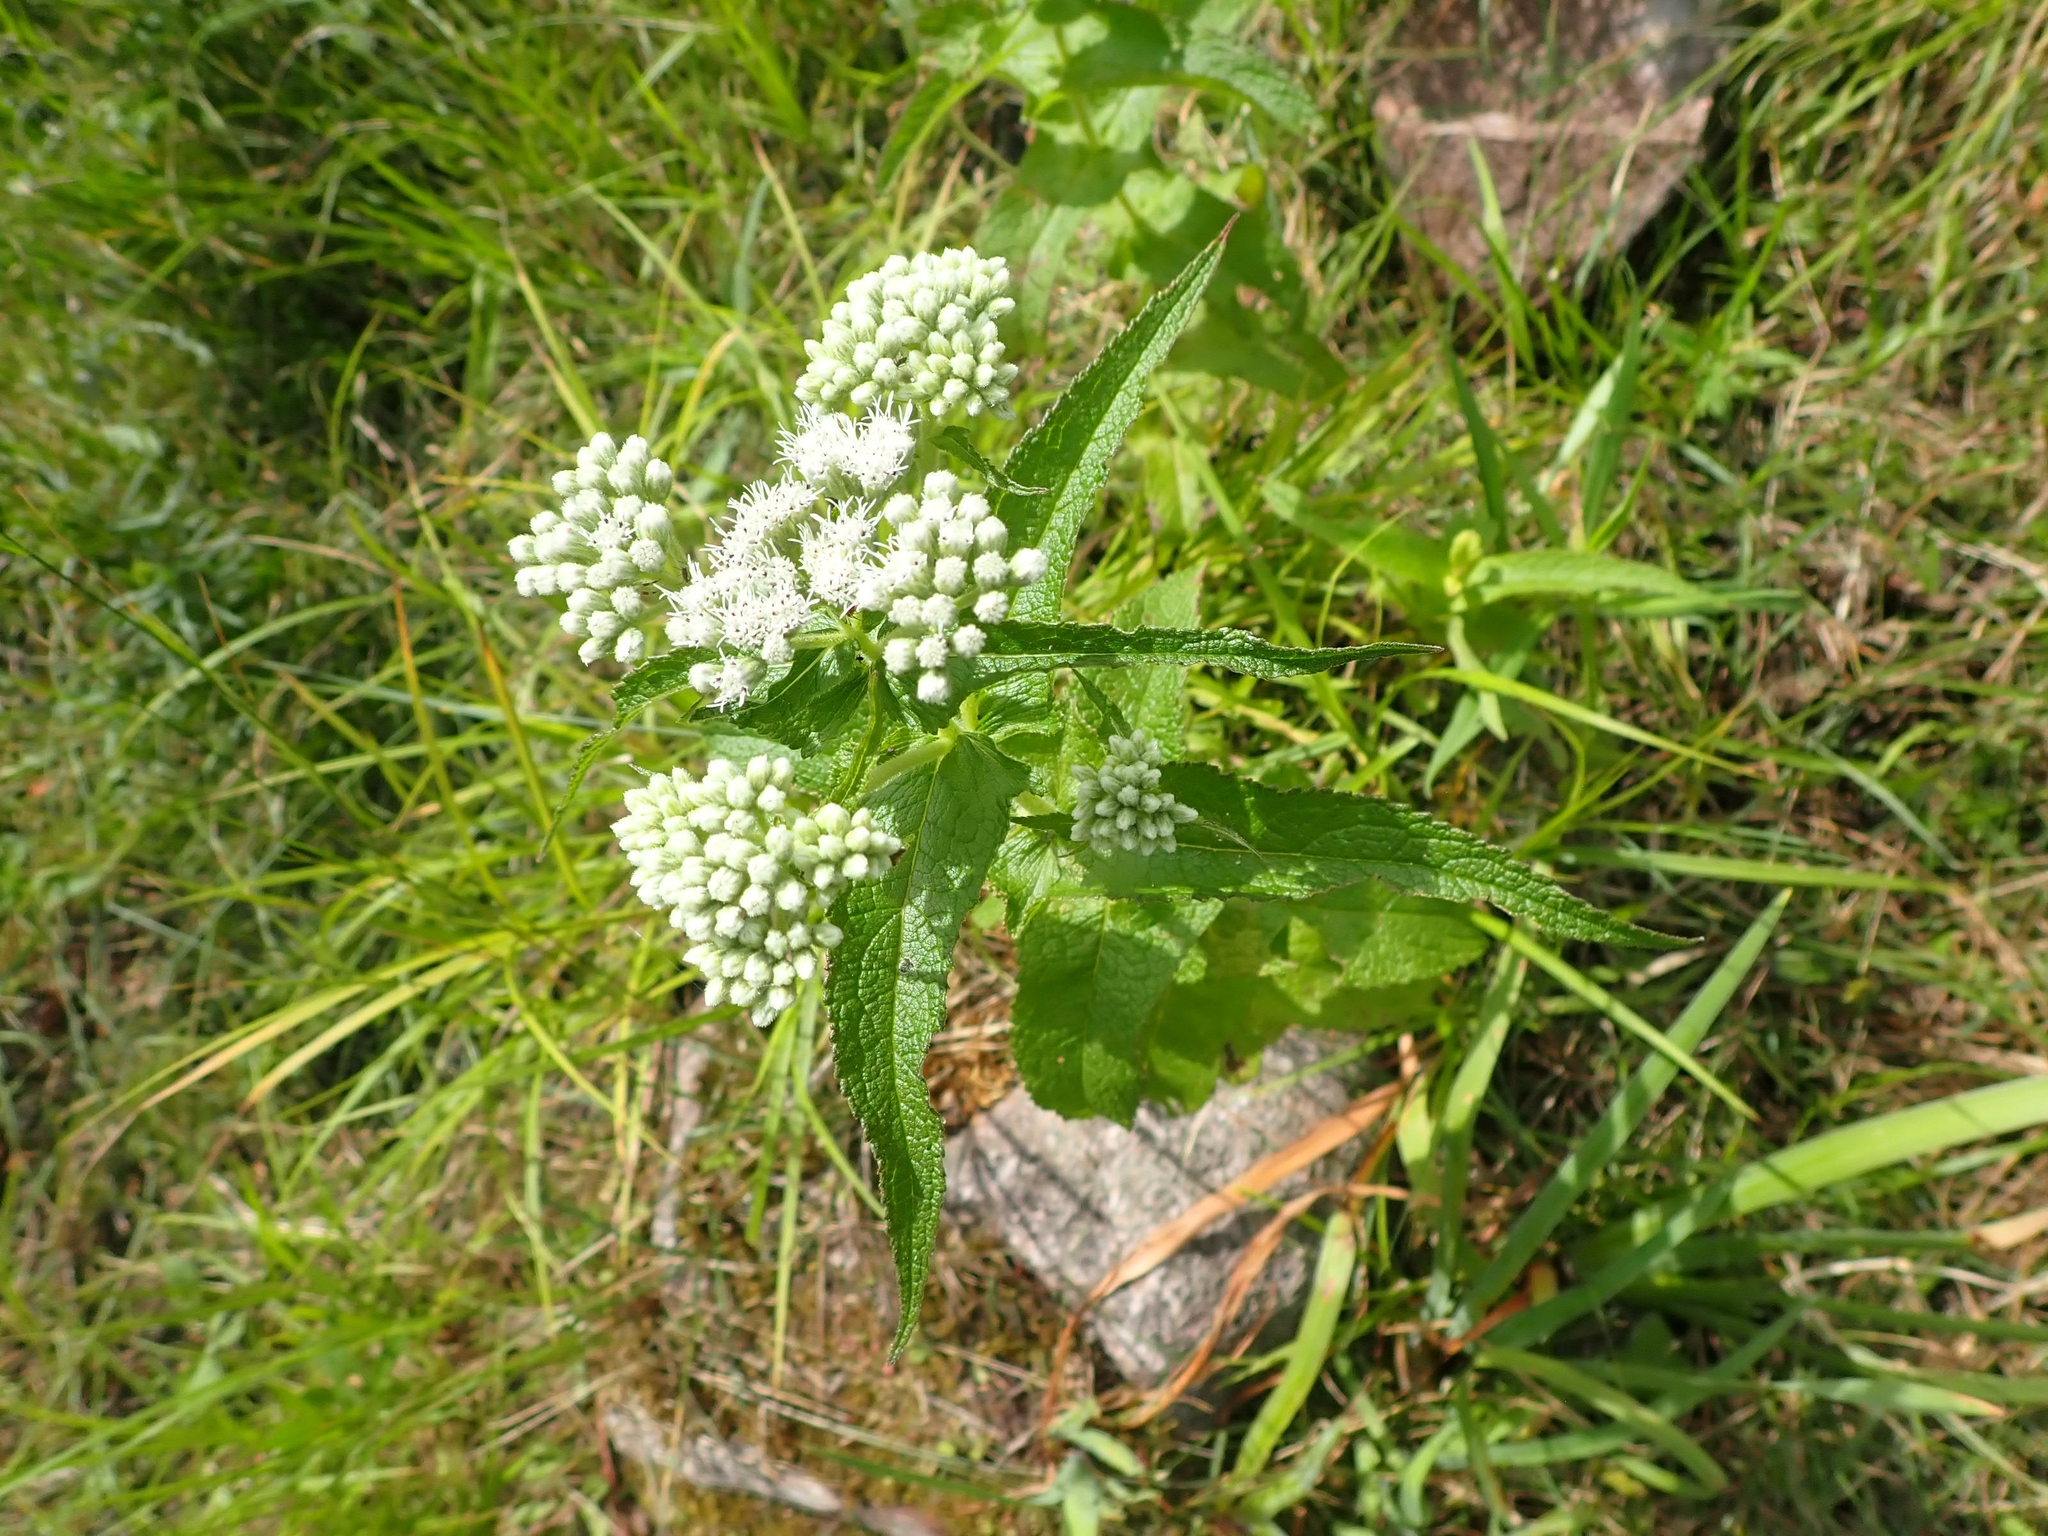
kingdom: Plantae
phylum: Tracheophyta
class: Magnoliopsida
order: Asterales
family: Asteraceae
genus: Eupatorium
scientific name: Eupatorium perfoliatum
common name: Boneset
